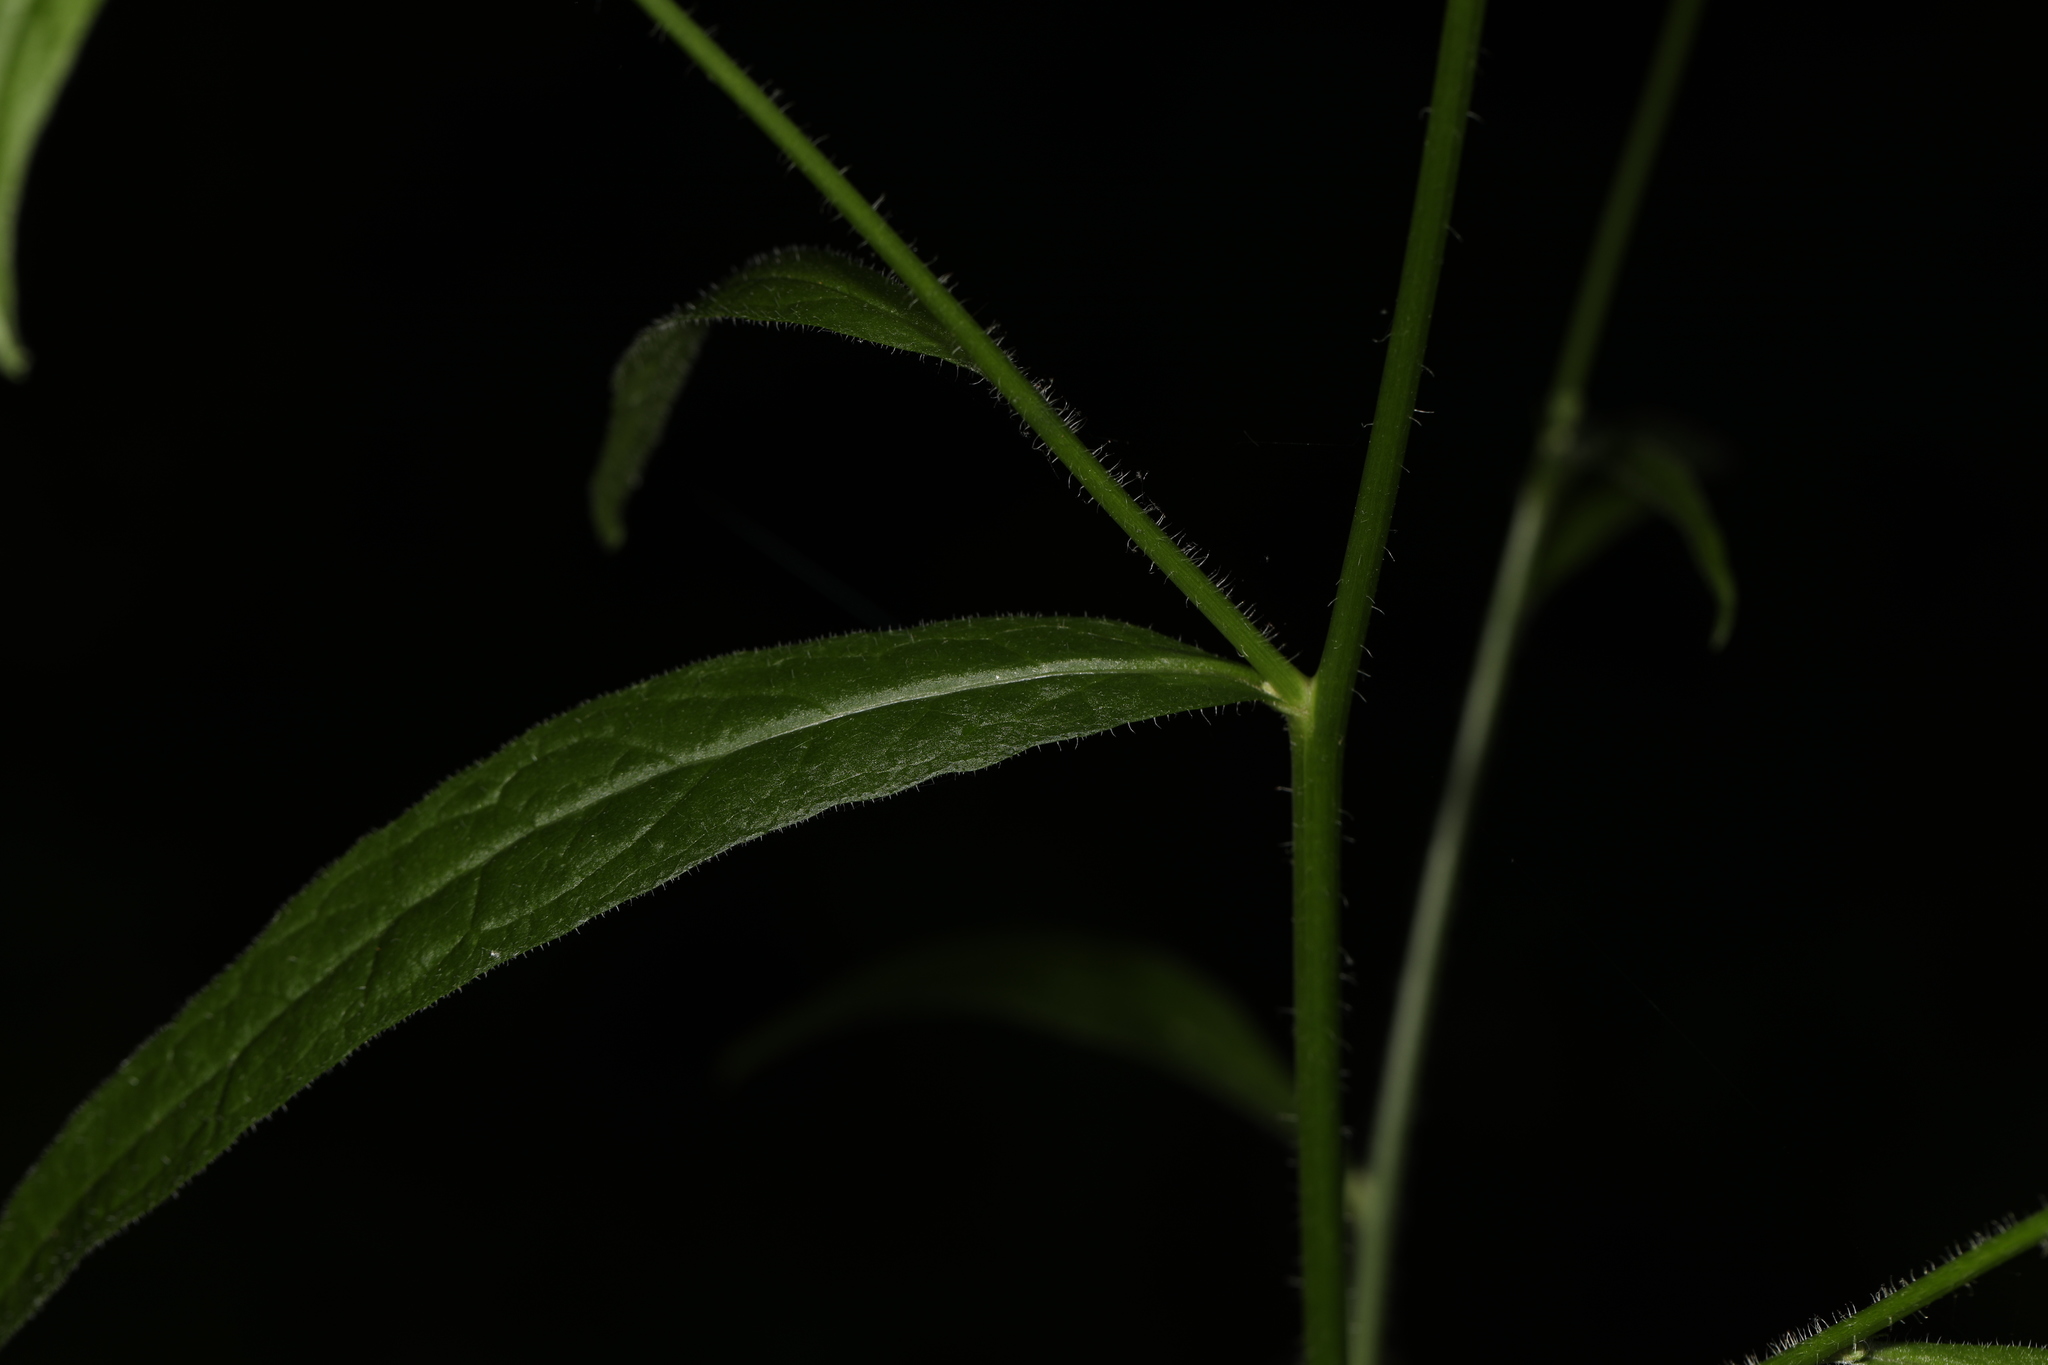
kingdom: Plantae
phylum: Tracheophyta
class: Magnoliopsida
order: Asterales
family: Asteraceae
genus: Lapsana
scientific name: Lapsana communis
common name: Nipplewort
